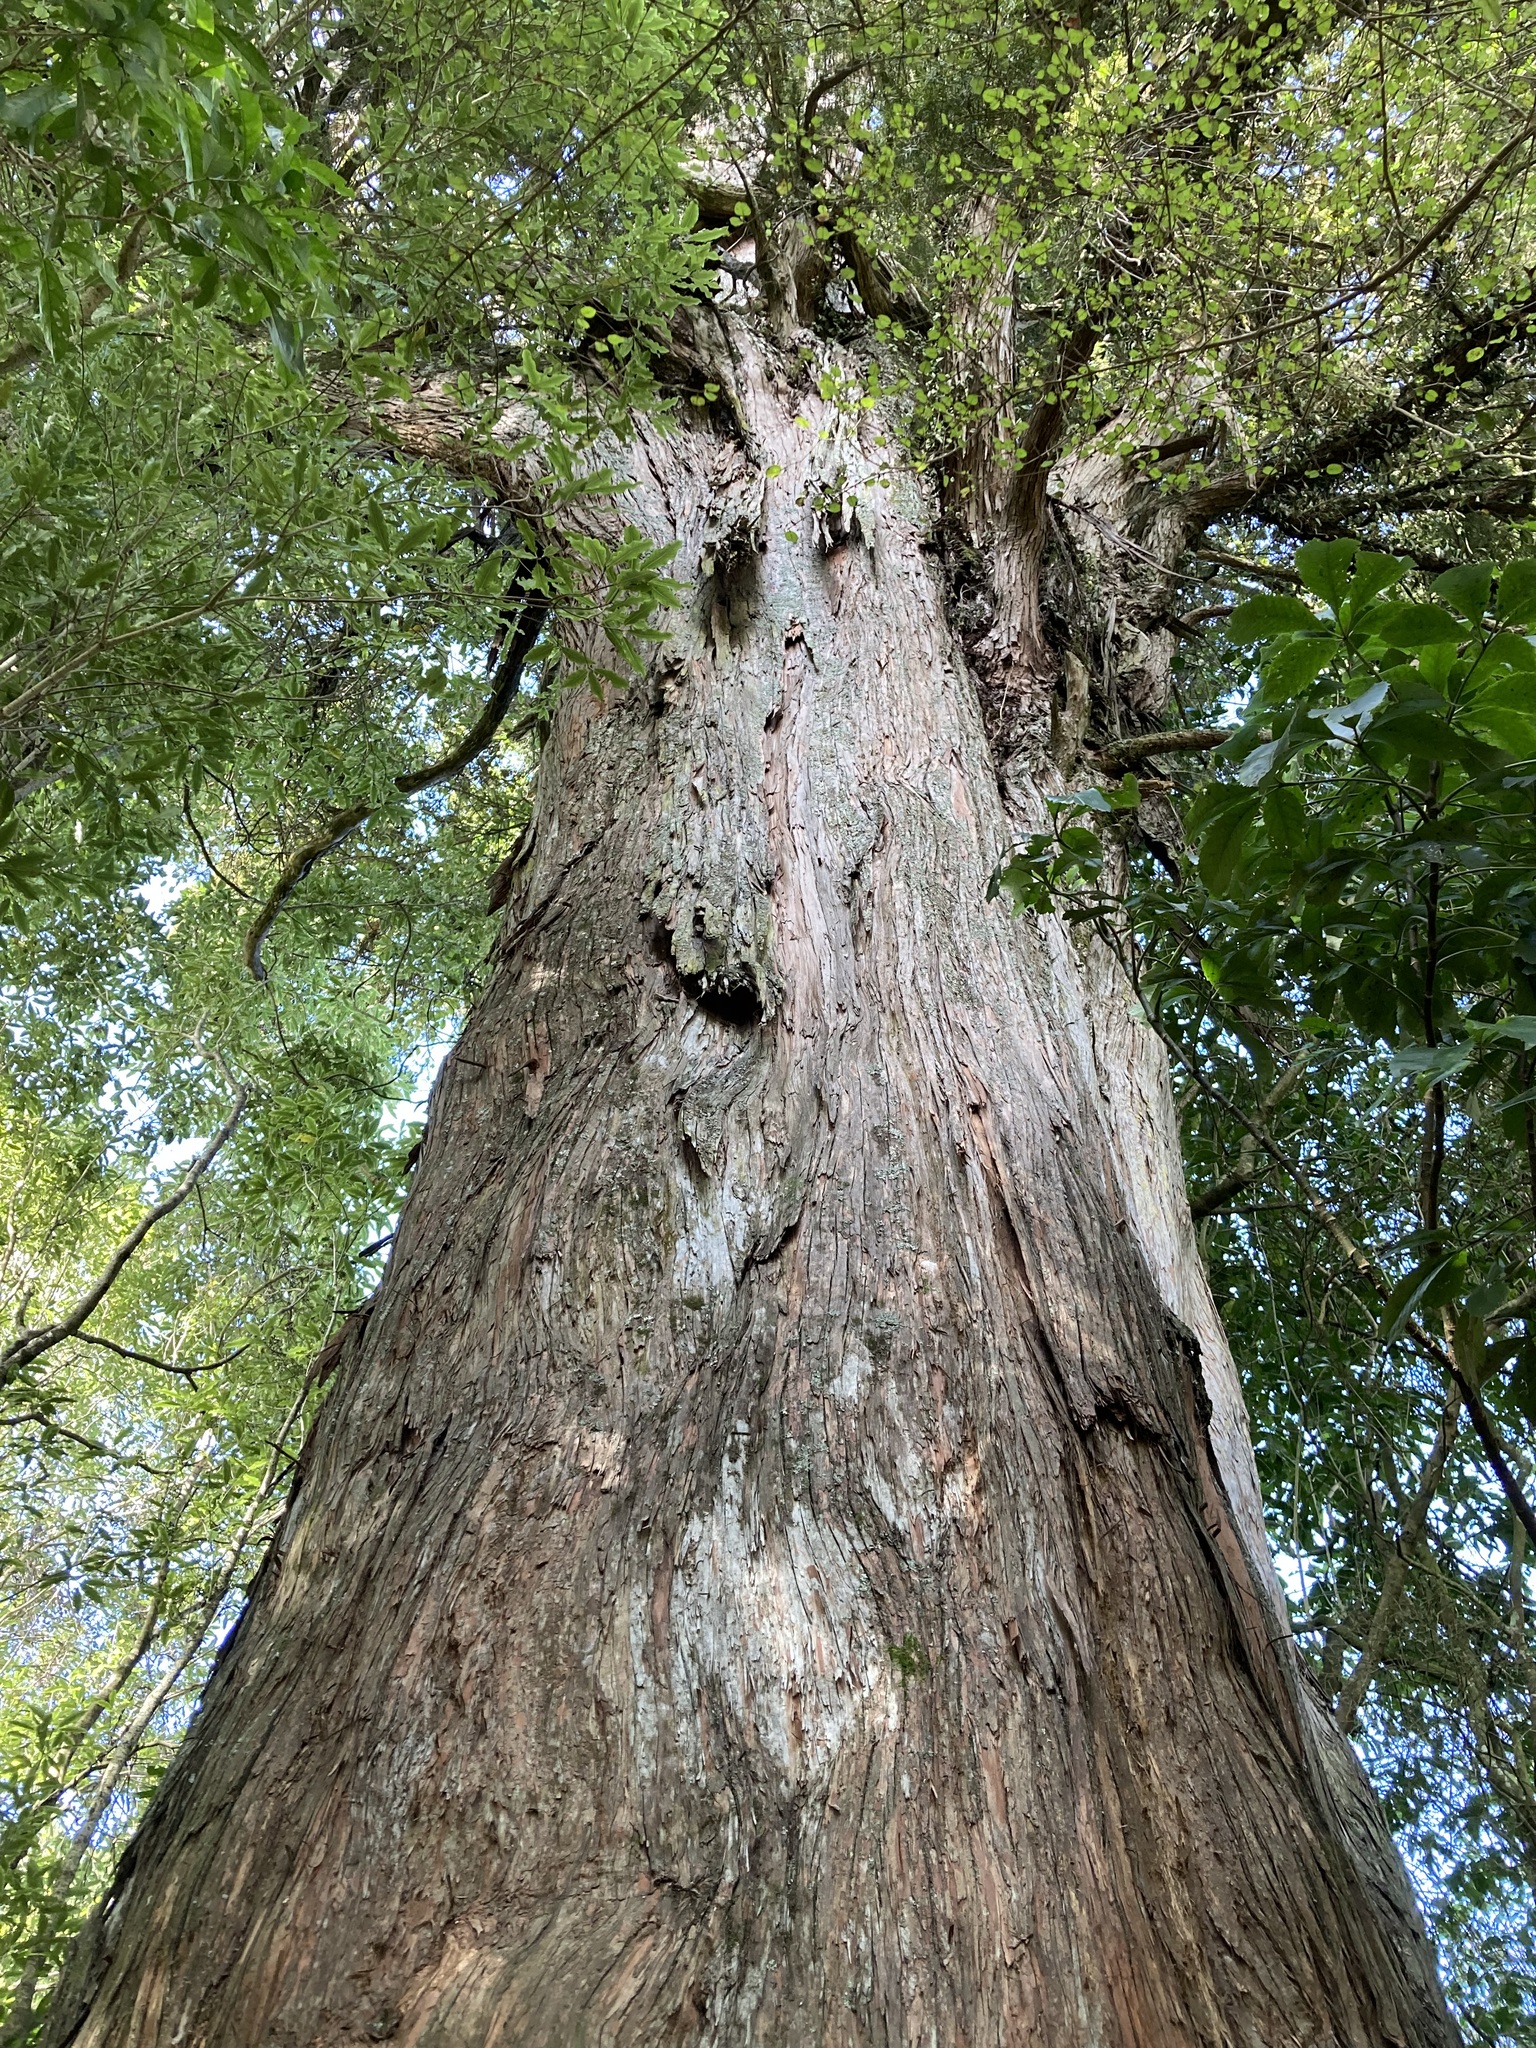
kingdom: Plantae
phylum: Tracheophyta
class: Pinopsida
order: Pinales
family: Podocarpaceae
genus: Podocarpus
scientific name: Podocarpus totara
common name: Totara
